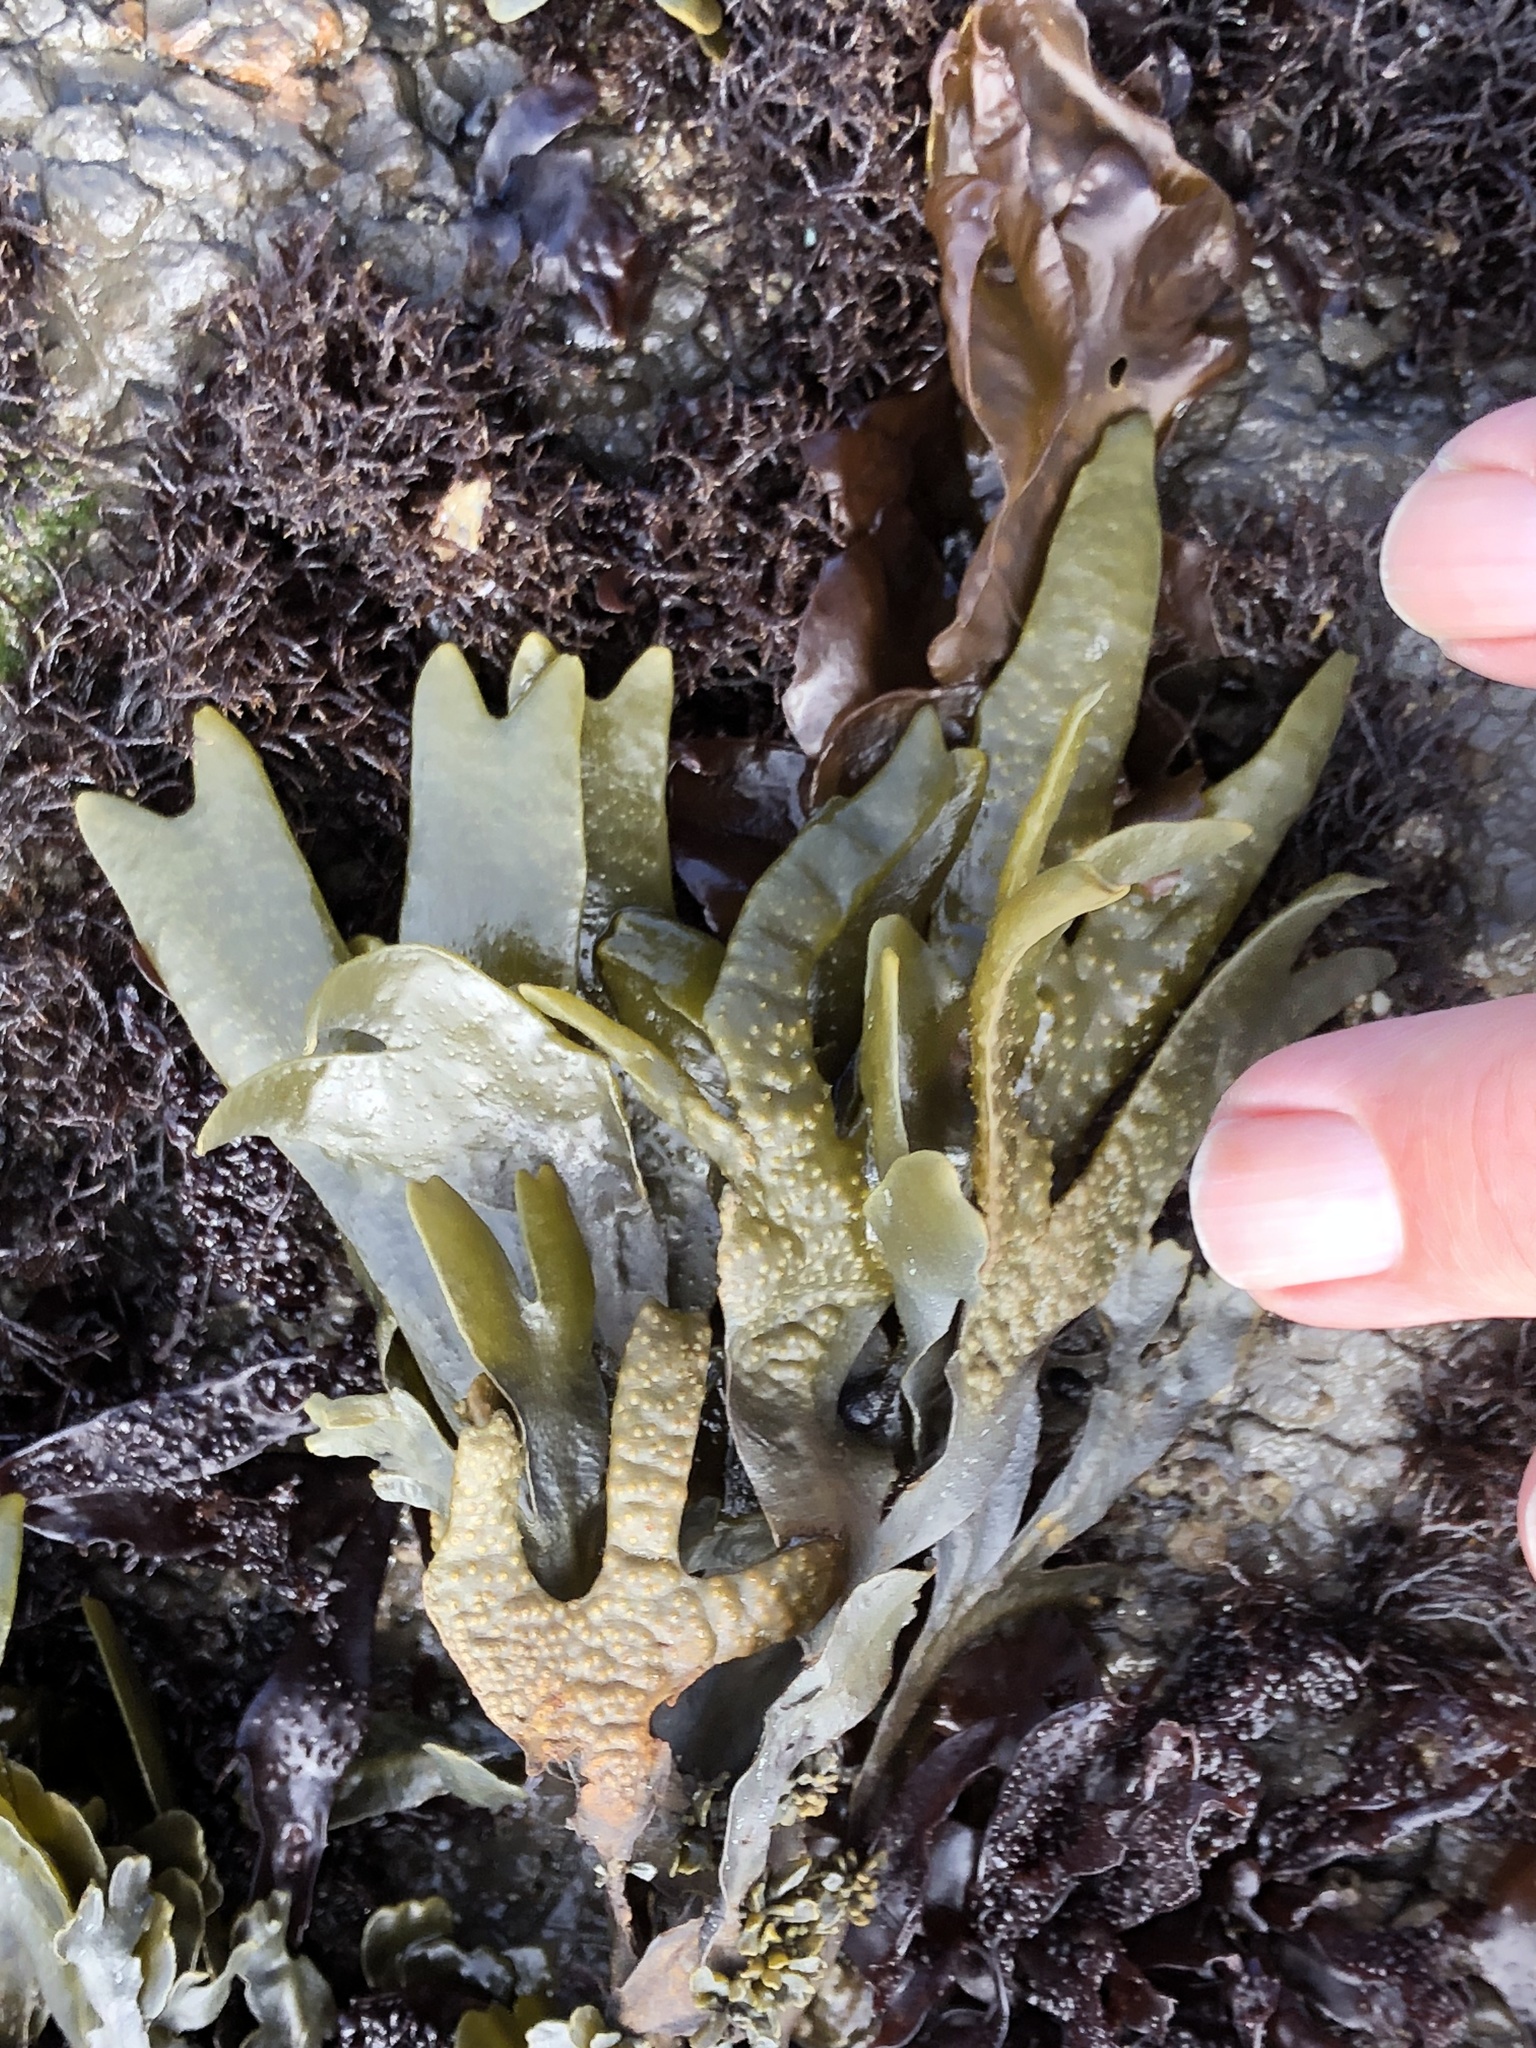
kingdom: Chromista
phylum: Ochrophyta
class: Phaeophyceae
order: Fucales
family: Fucaceae
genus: Fucus
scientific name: Fucus distichus
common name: Rockweed
